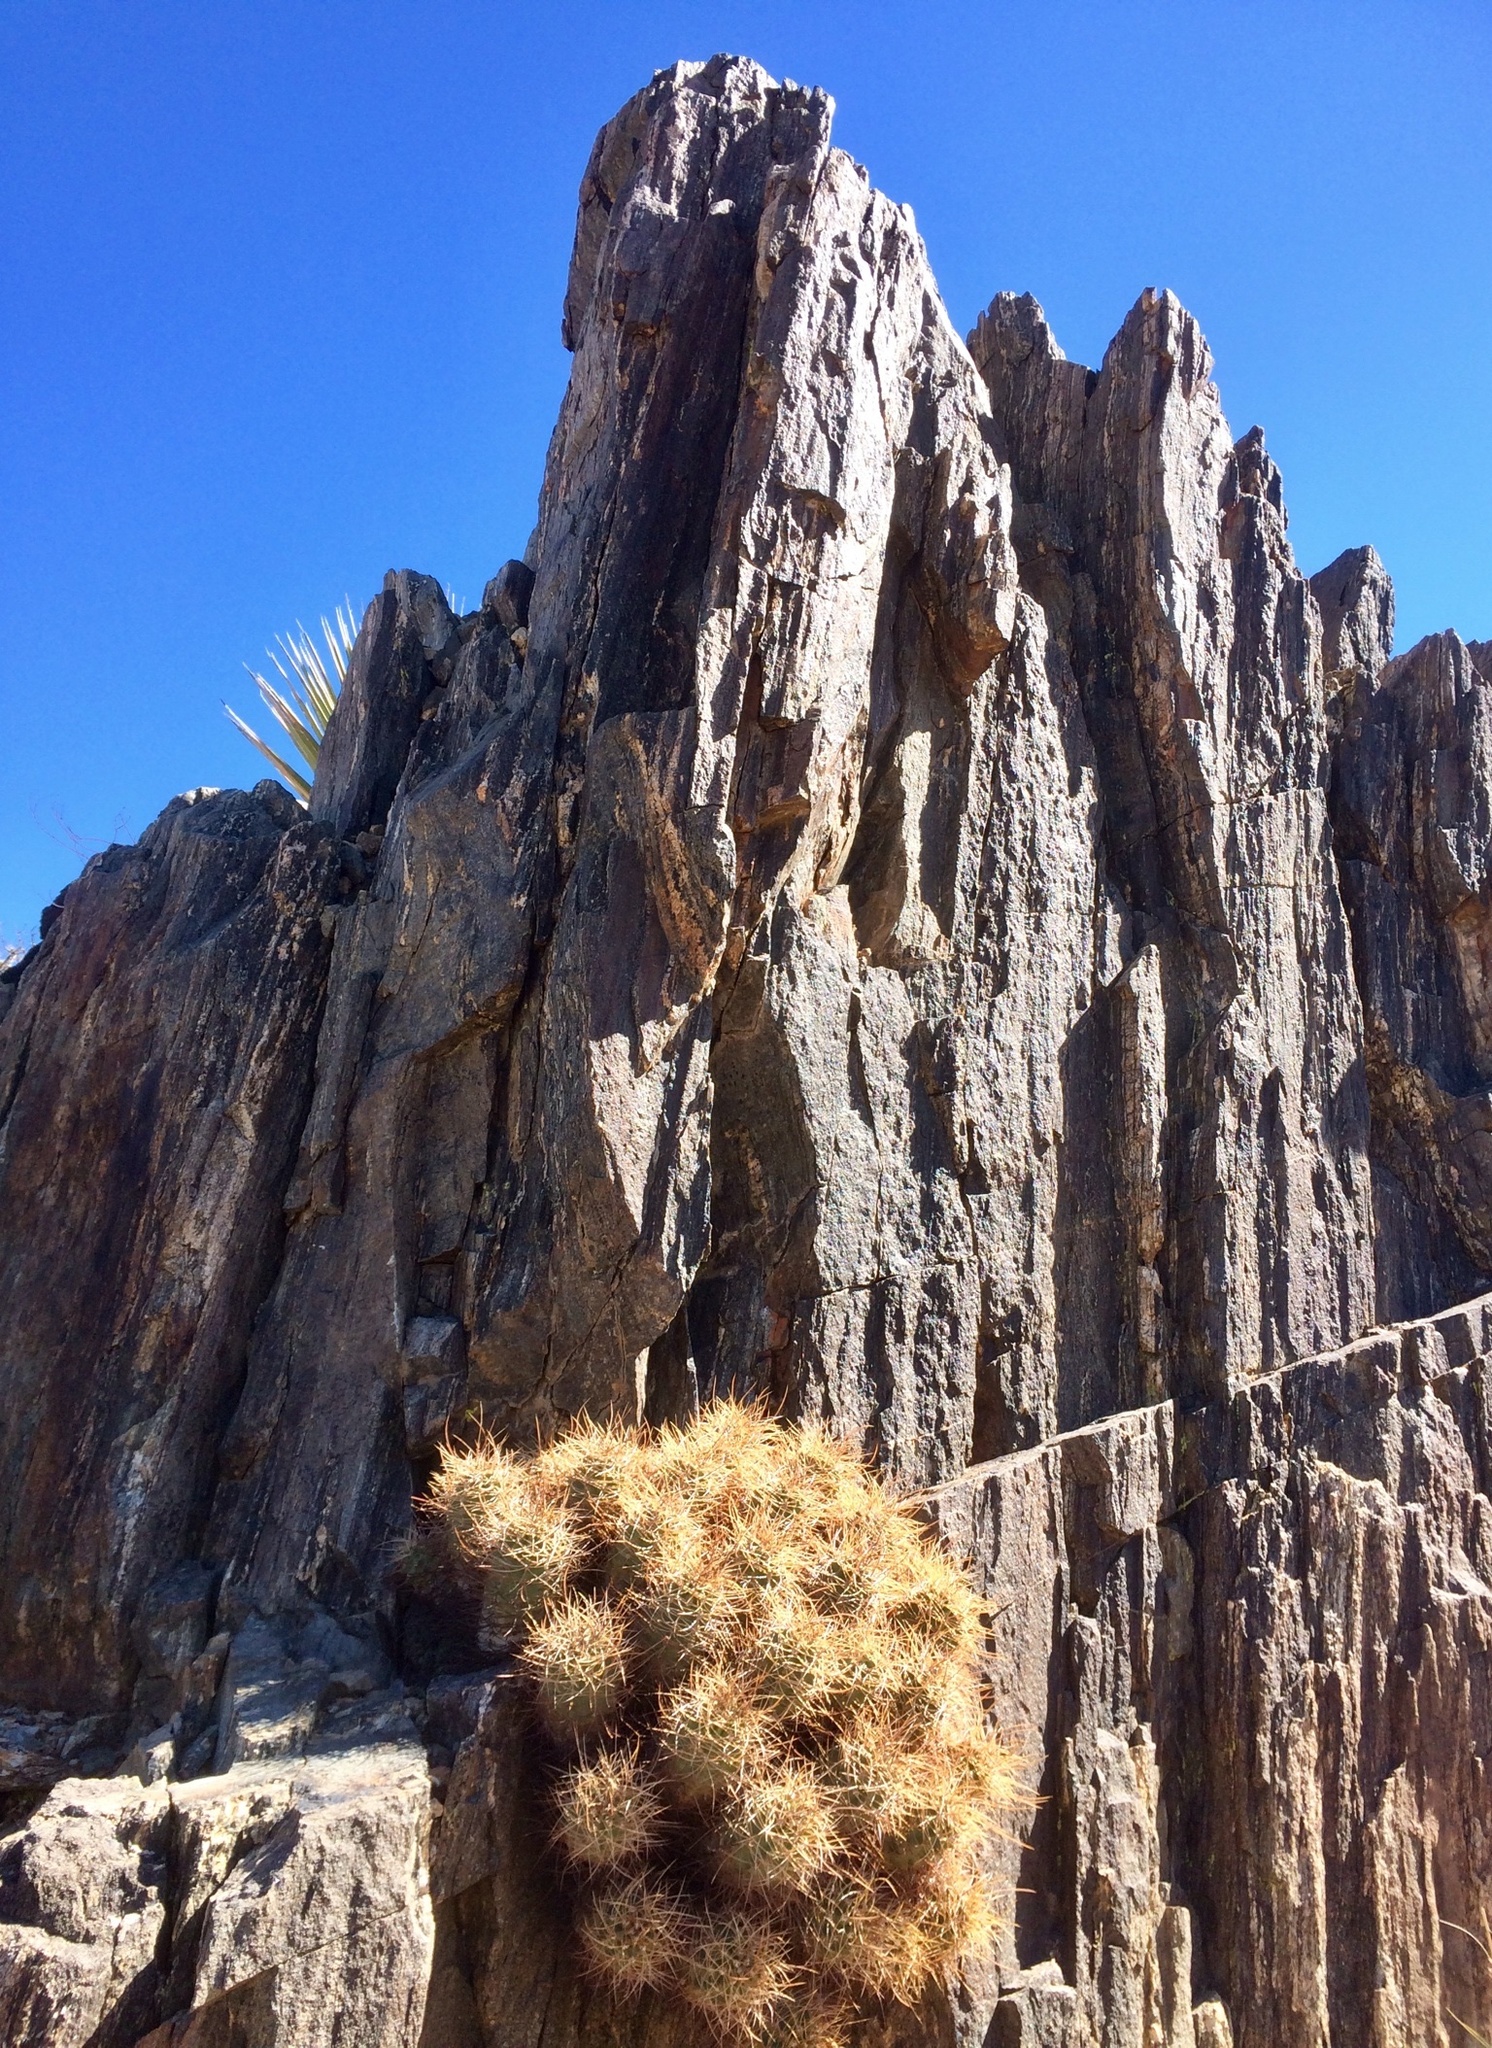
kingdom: Plantae
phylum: Tracheophyta
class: Magnoliopsida
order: Caryophyllales
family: Cactaceae
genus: Echinocereus
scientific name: Echinocereus triglochidiatus
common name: Claretcup hedgehog
